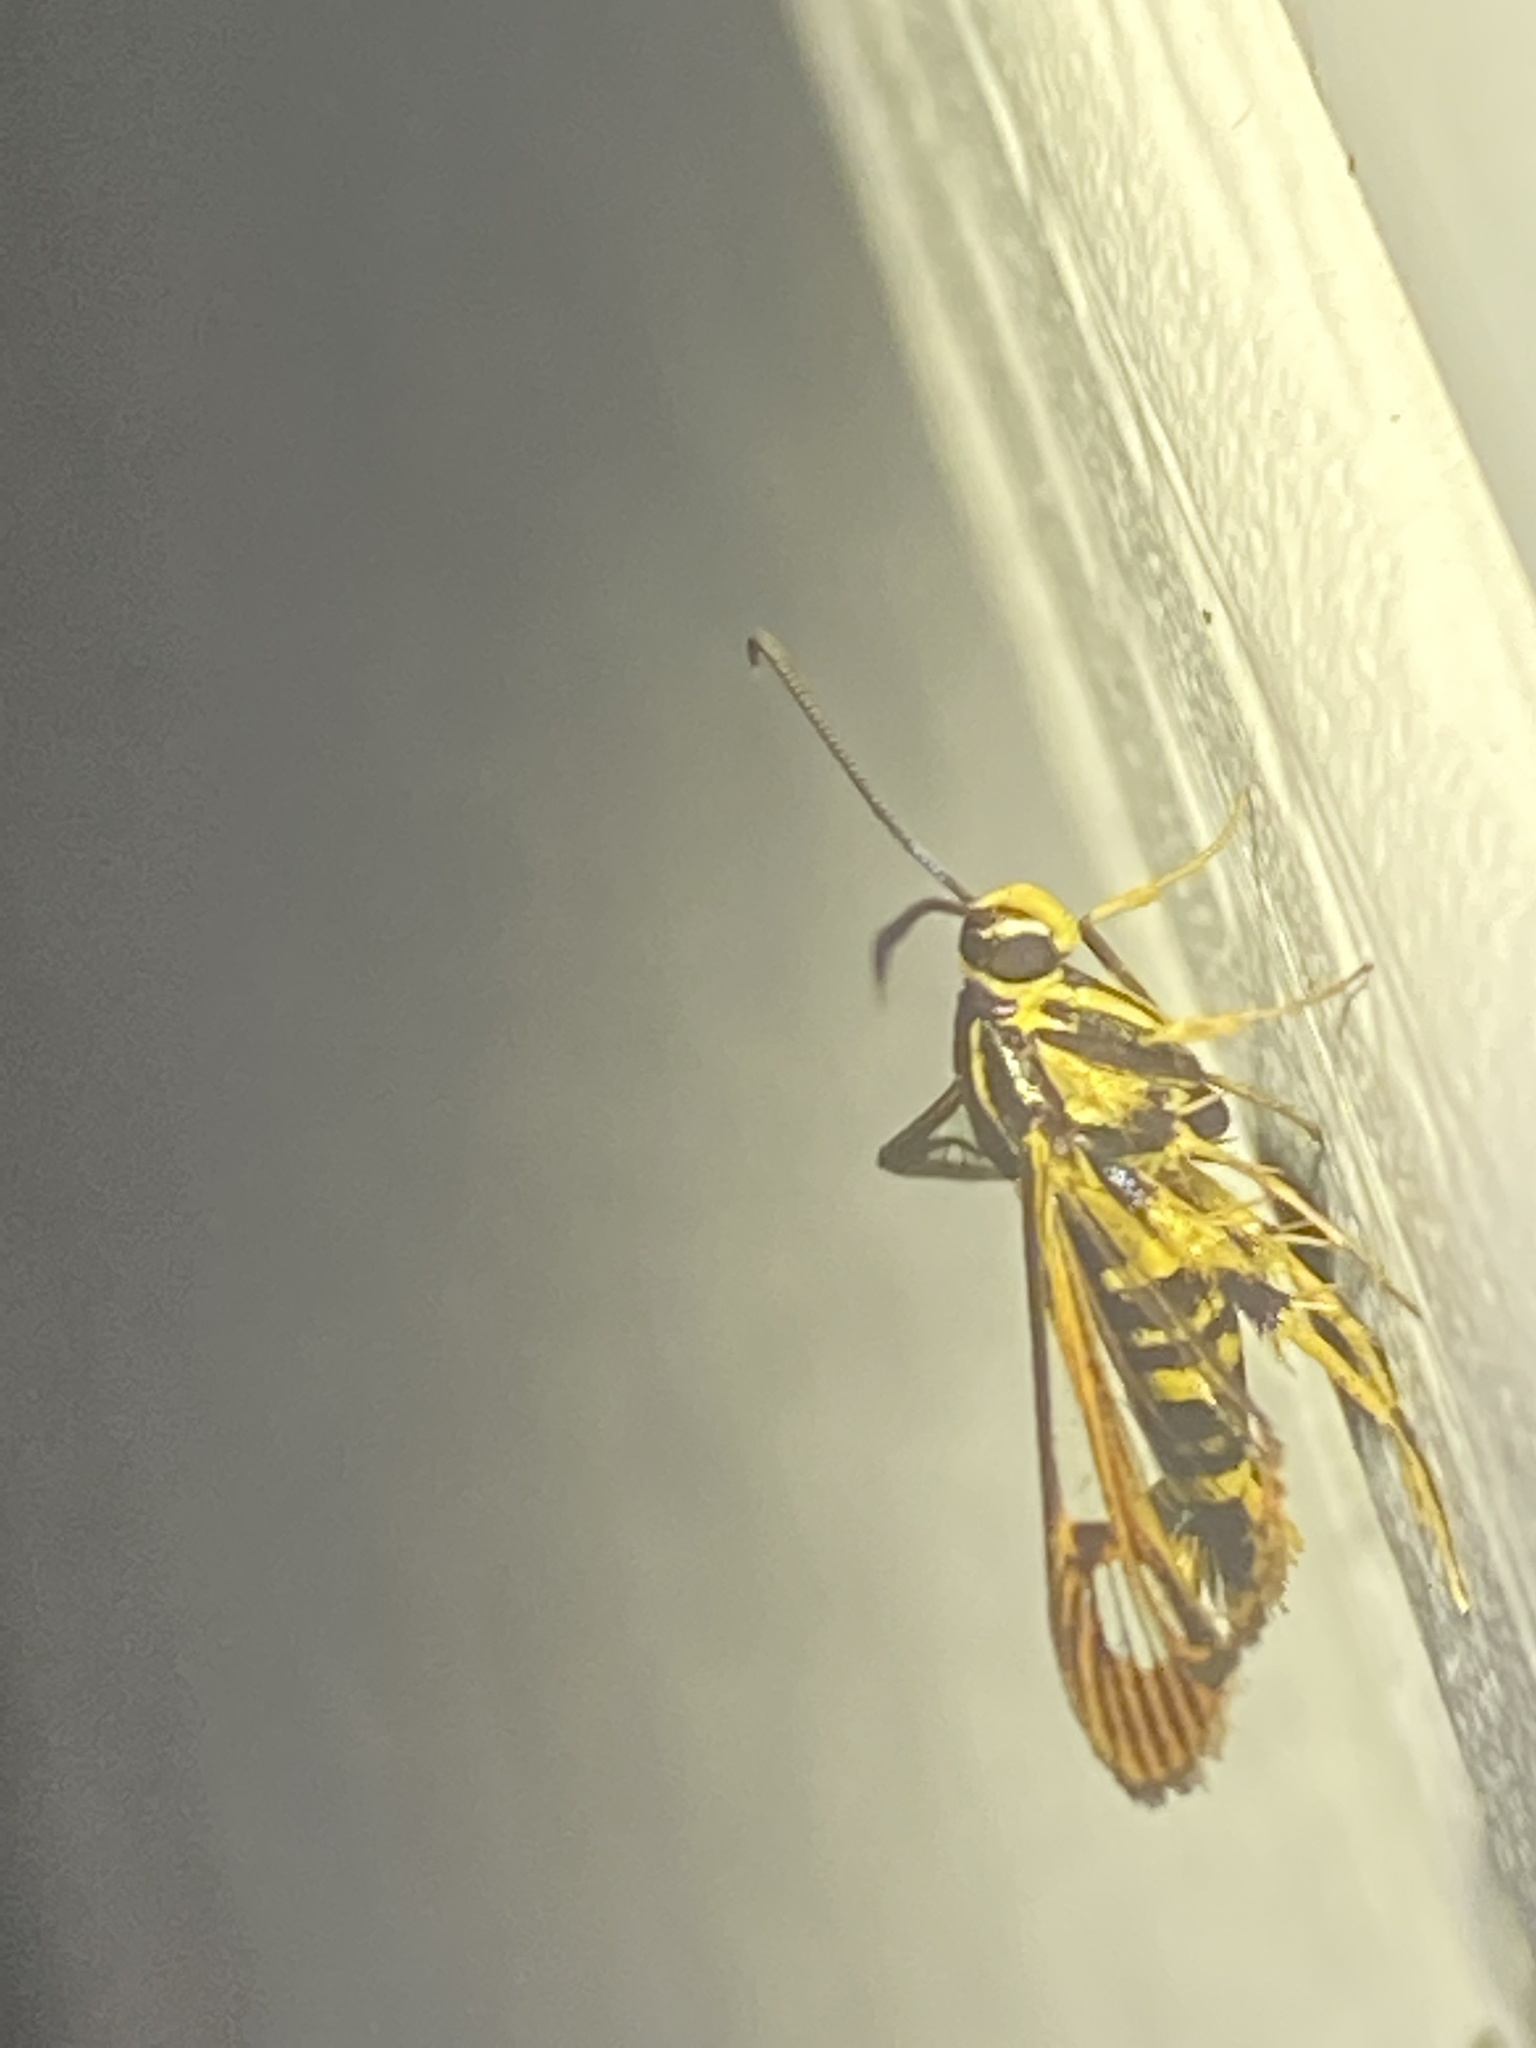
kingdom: Animalia
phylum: Arthropoda
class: Insecta
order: Lepidoptera
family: Sesiidae
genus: Synanthedon
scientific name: Synanthedon arkansasensis
